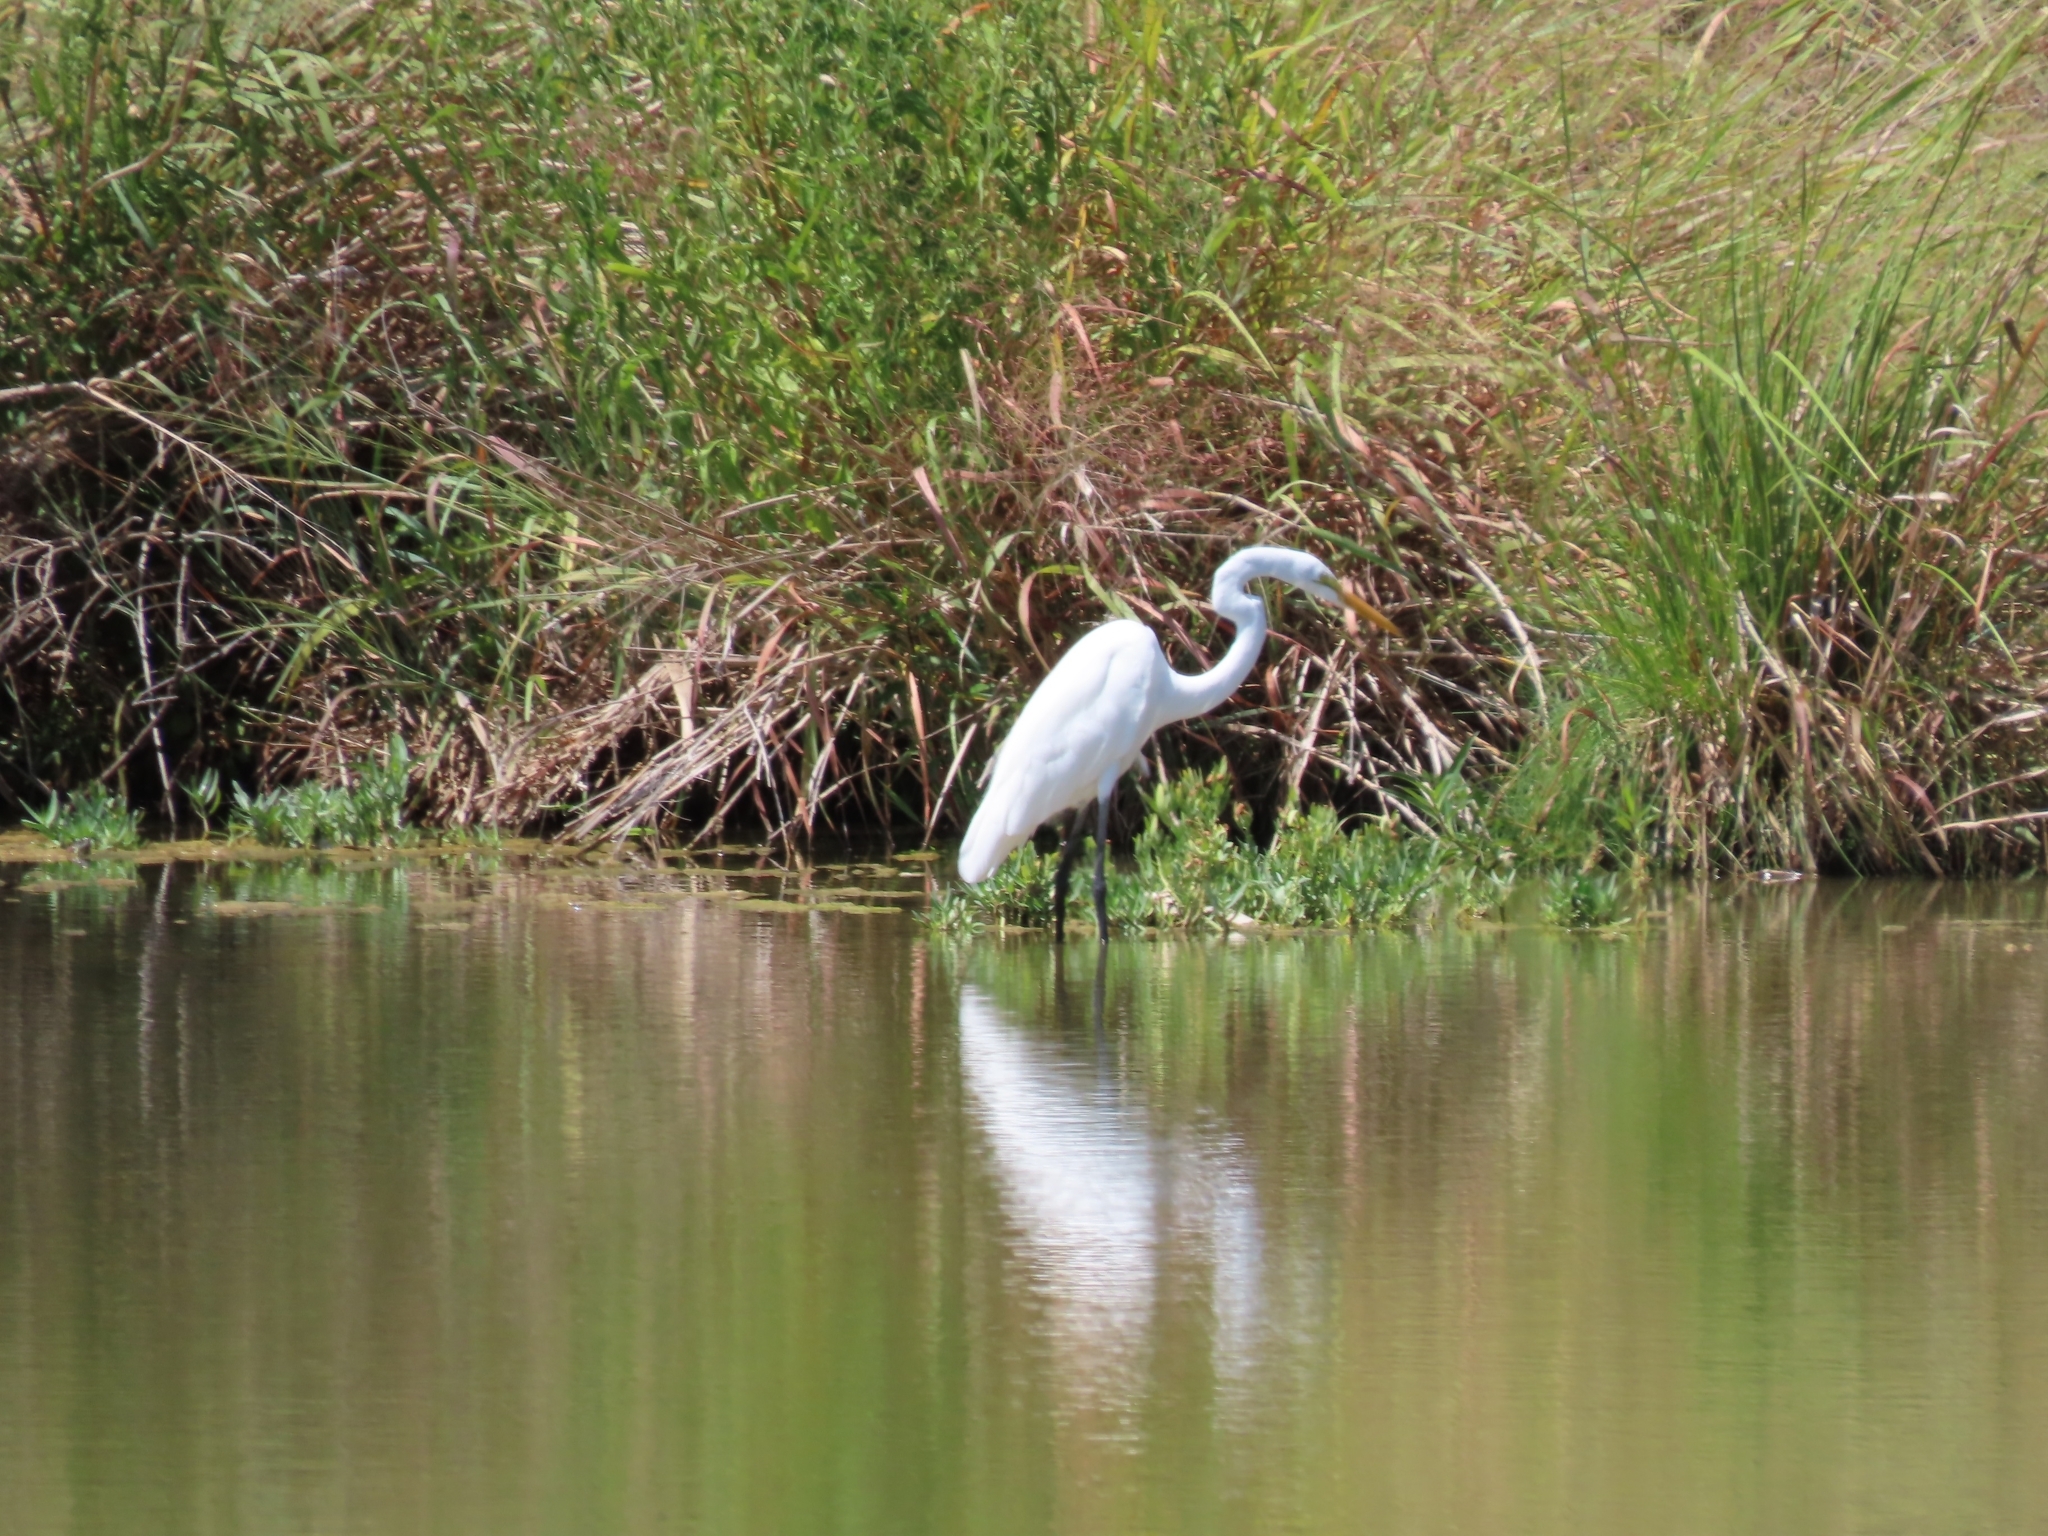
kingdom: Animalia
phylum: Chordata
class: Aves
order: Pelecaniformes
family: Ardeidae
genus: Ardea
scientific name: Ardea alba
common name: Great egret
